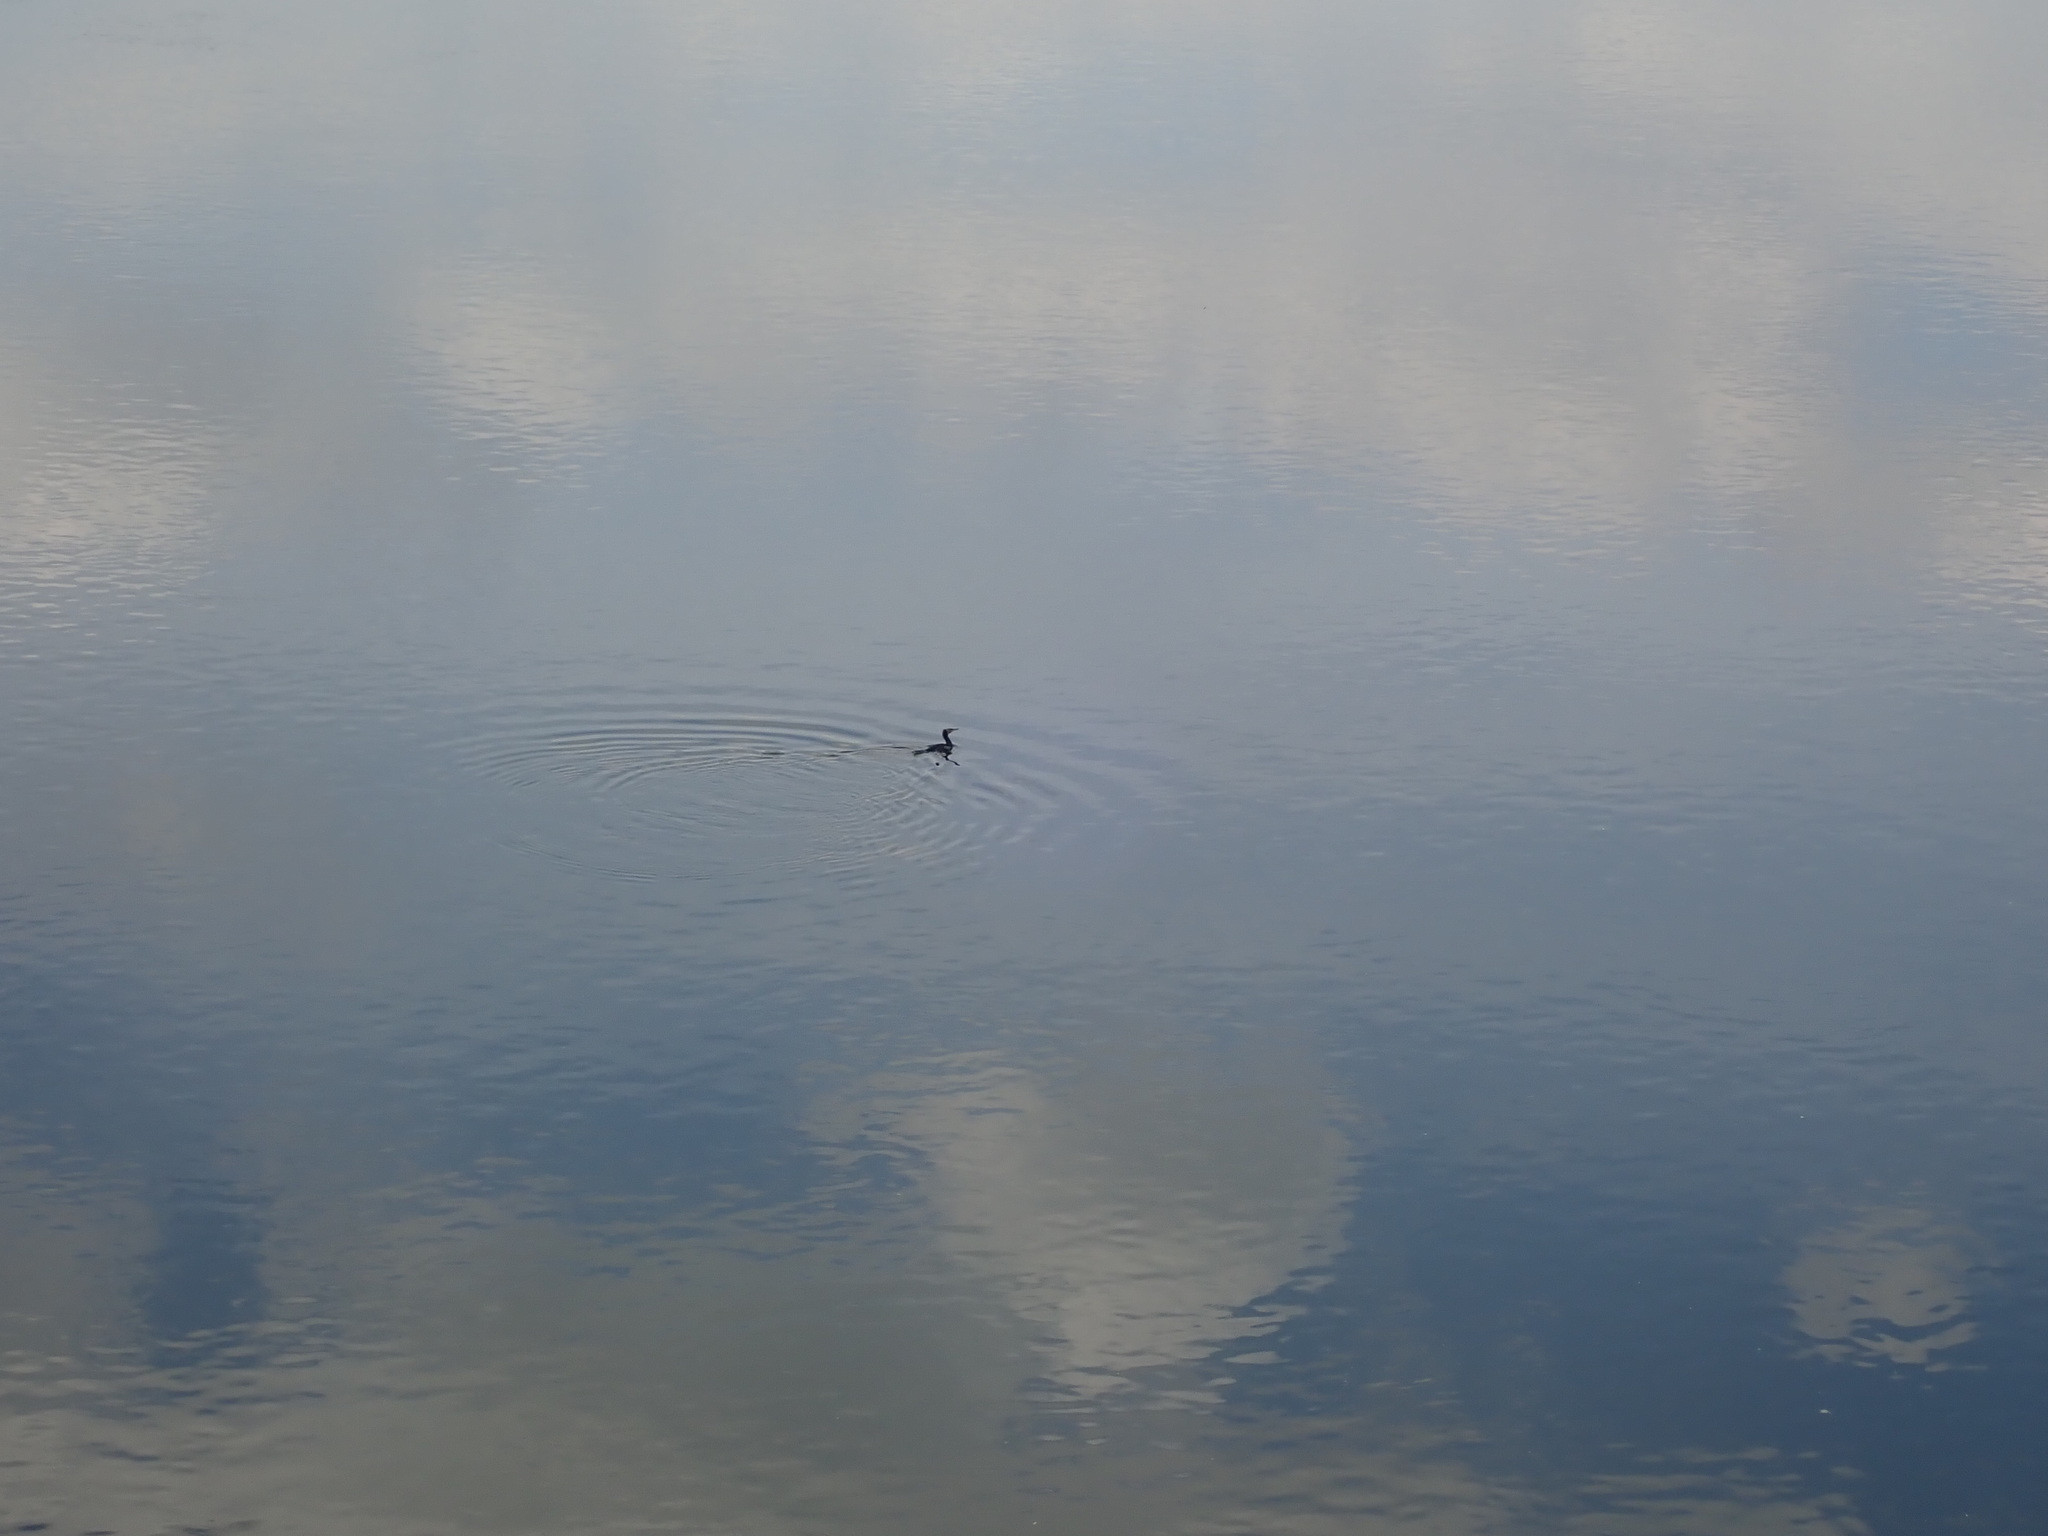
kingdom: Animalia
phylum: Chordata
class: Aves
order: Suliformes
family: Phalacrocoracidae
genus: Phalacrocorax
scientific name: Phalacrocorax carbo
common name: Great cormorant
